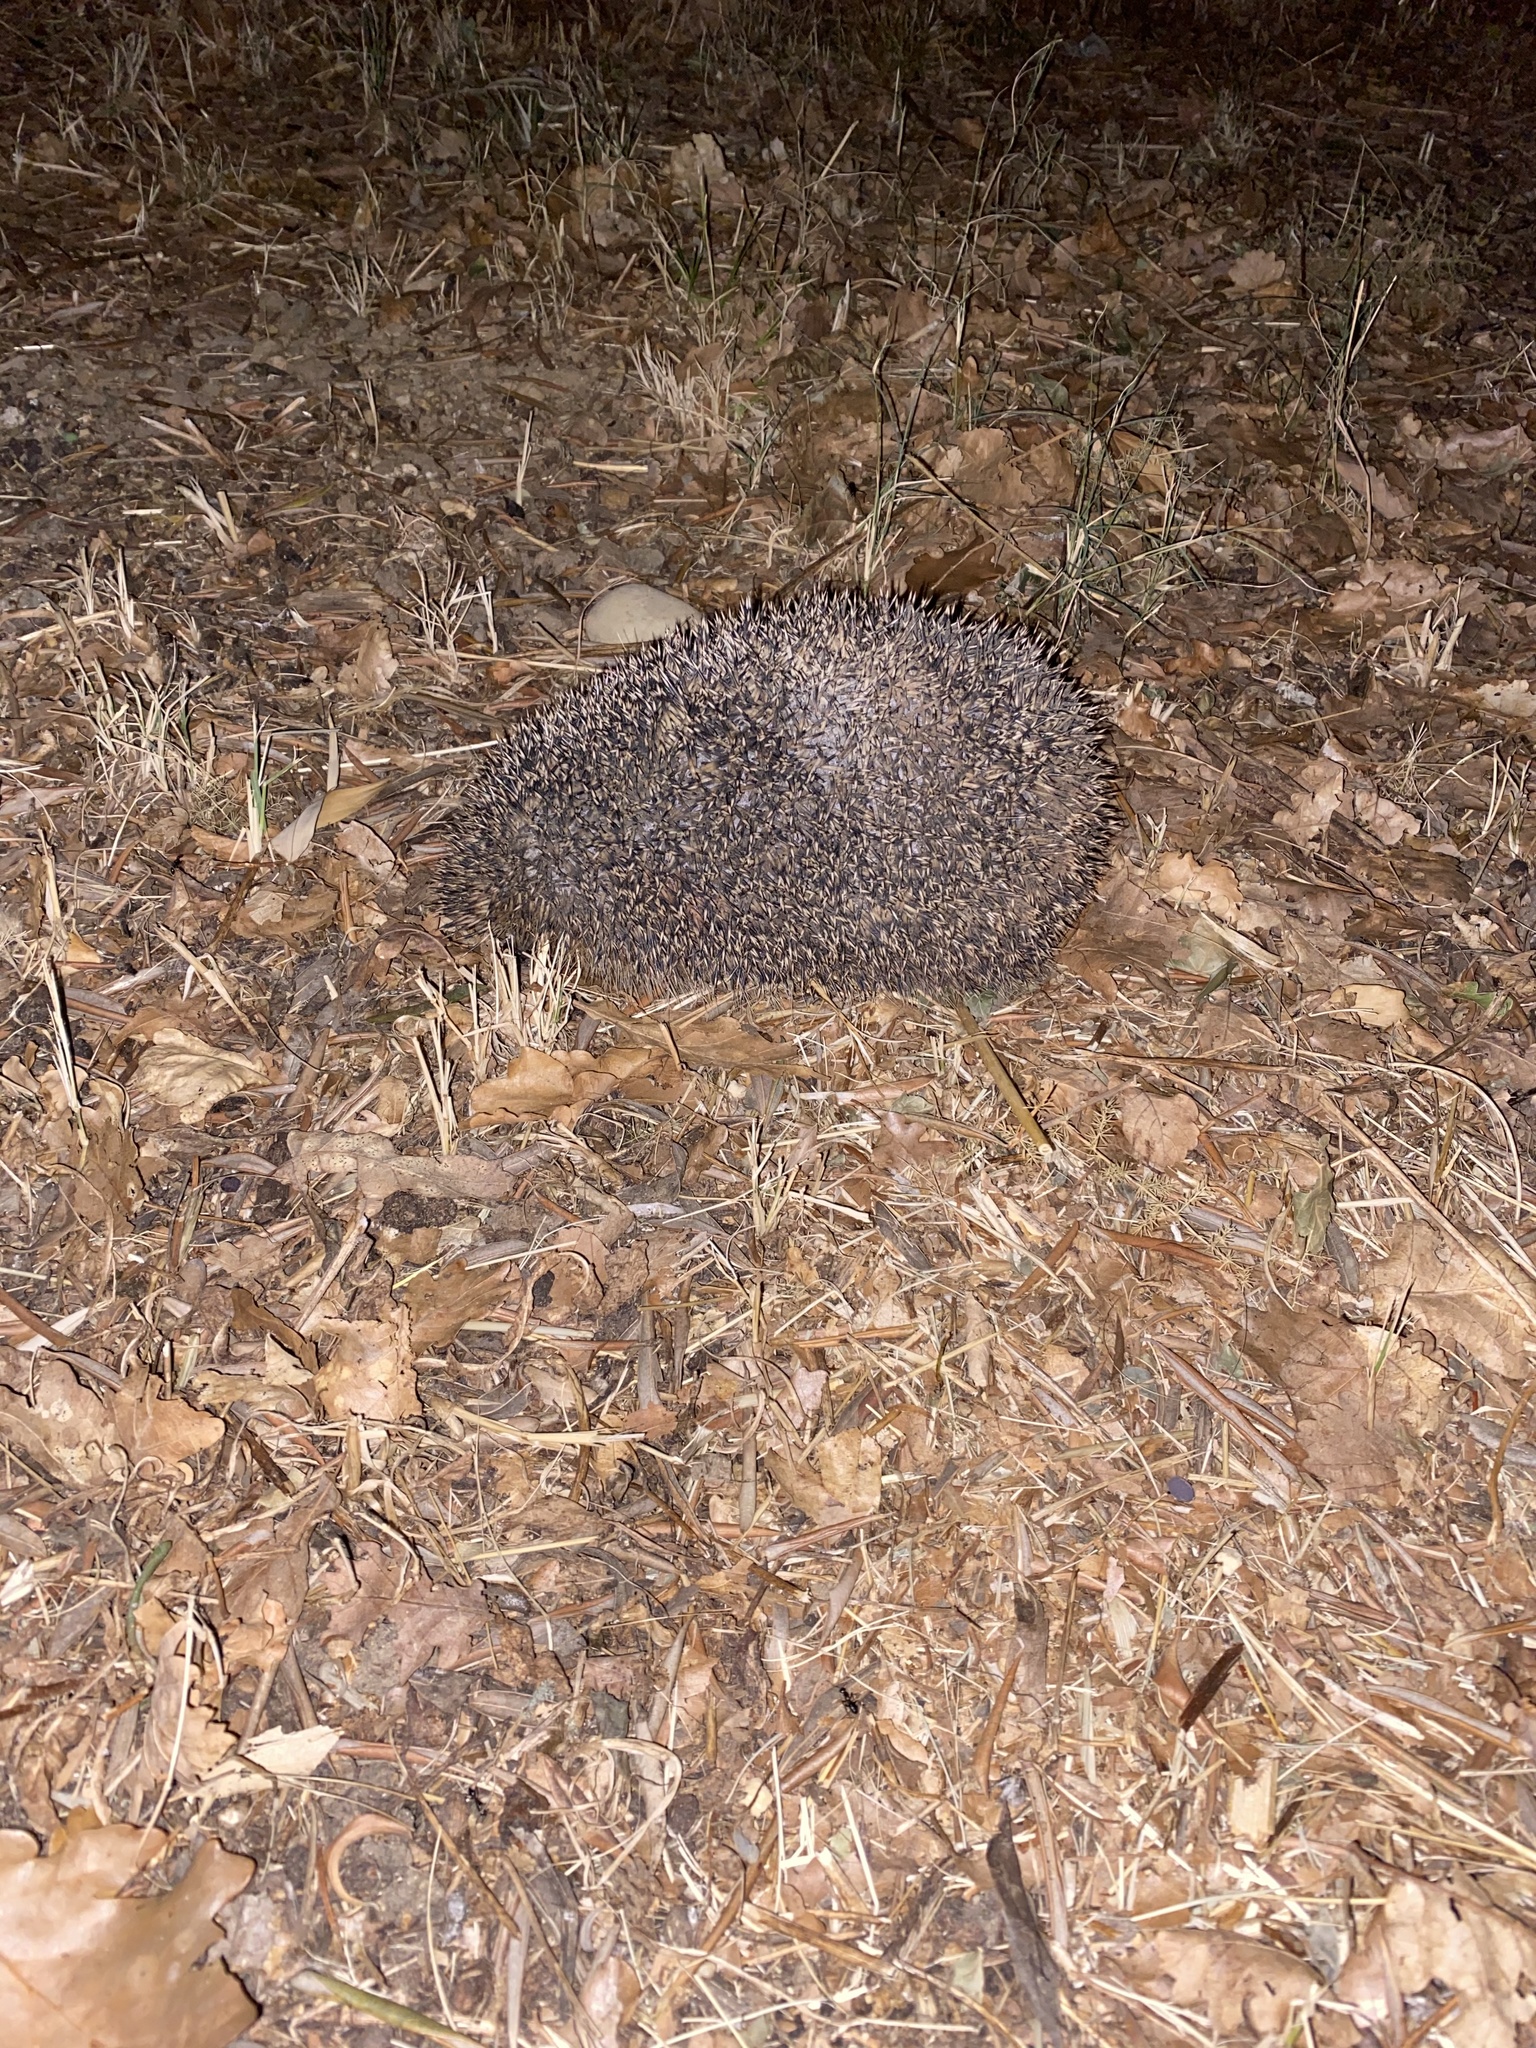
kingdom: Animalia
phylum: Chordata
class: Mammalia
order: Erinaceomorpha
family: Erinaceidae
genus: Erinaceus
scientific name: Erinaceus europaeus
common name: West european hedgehog
